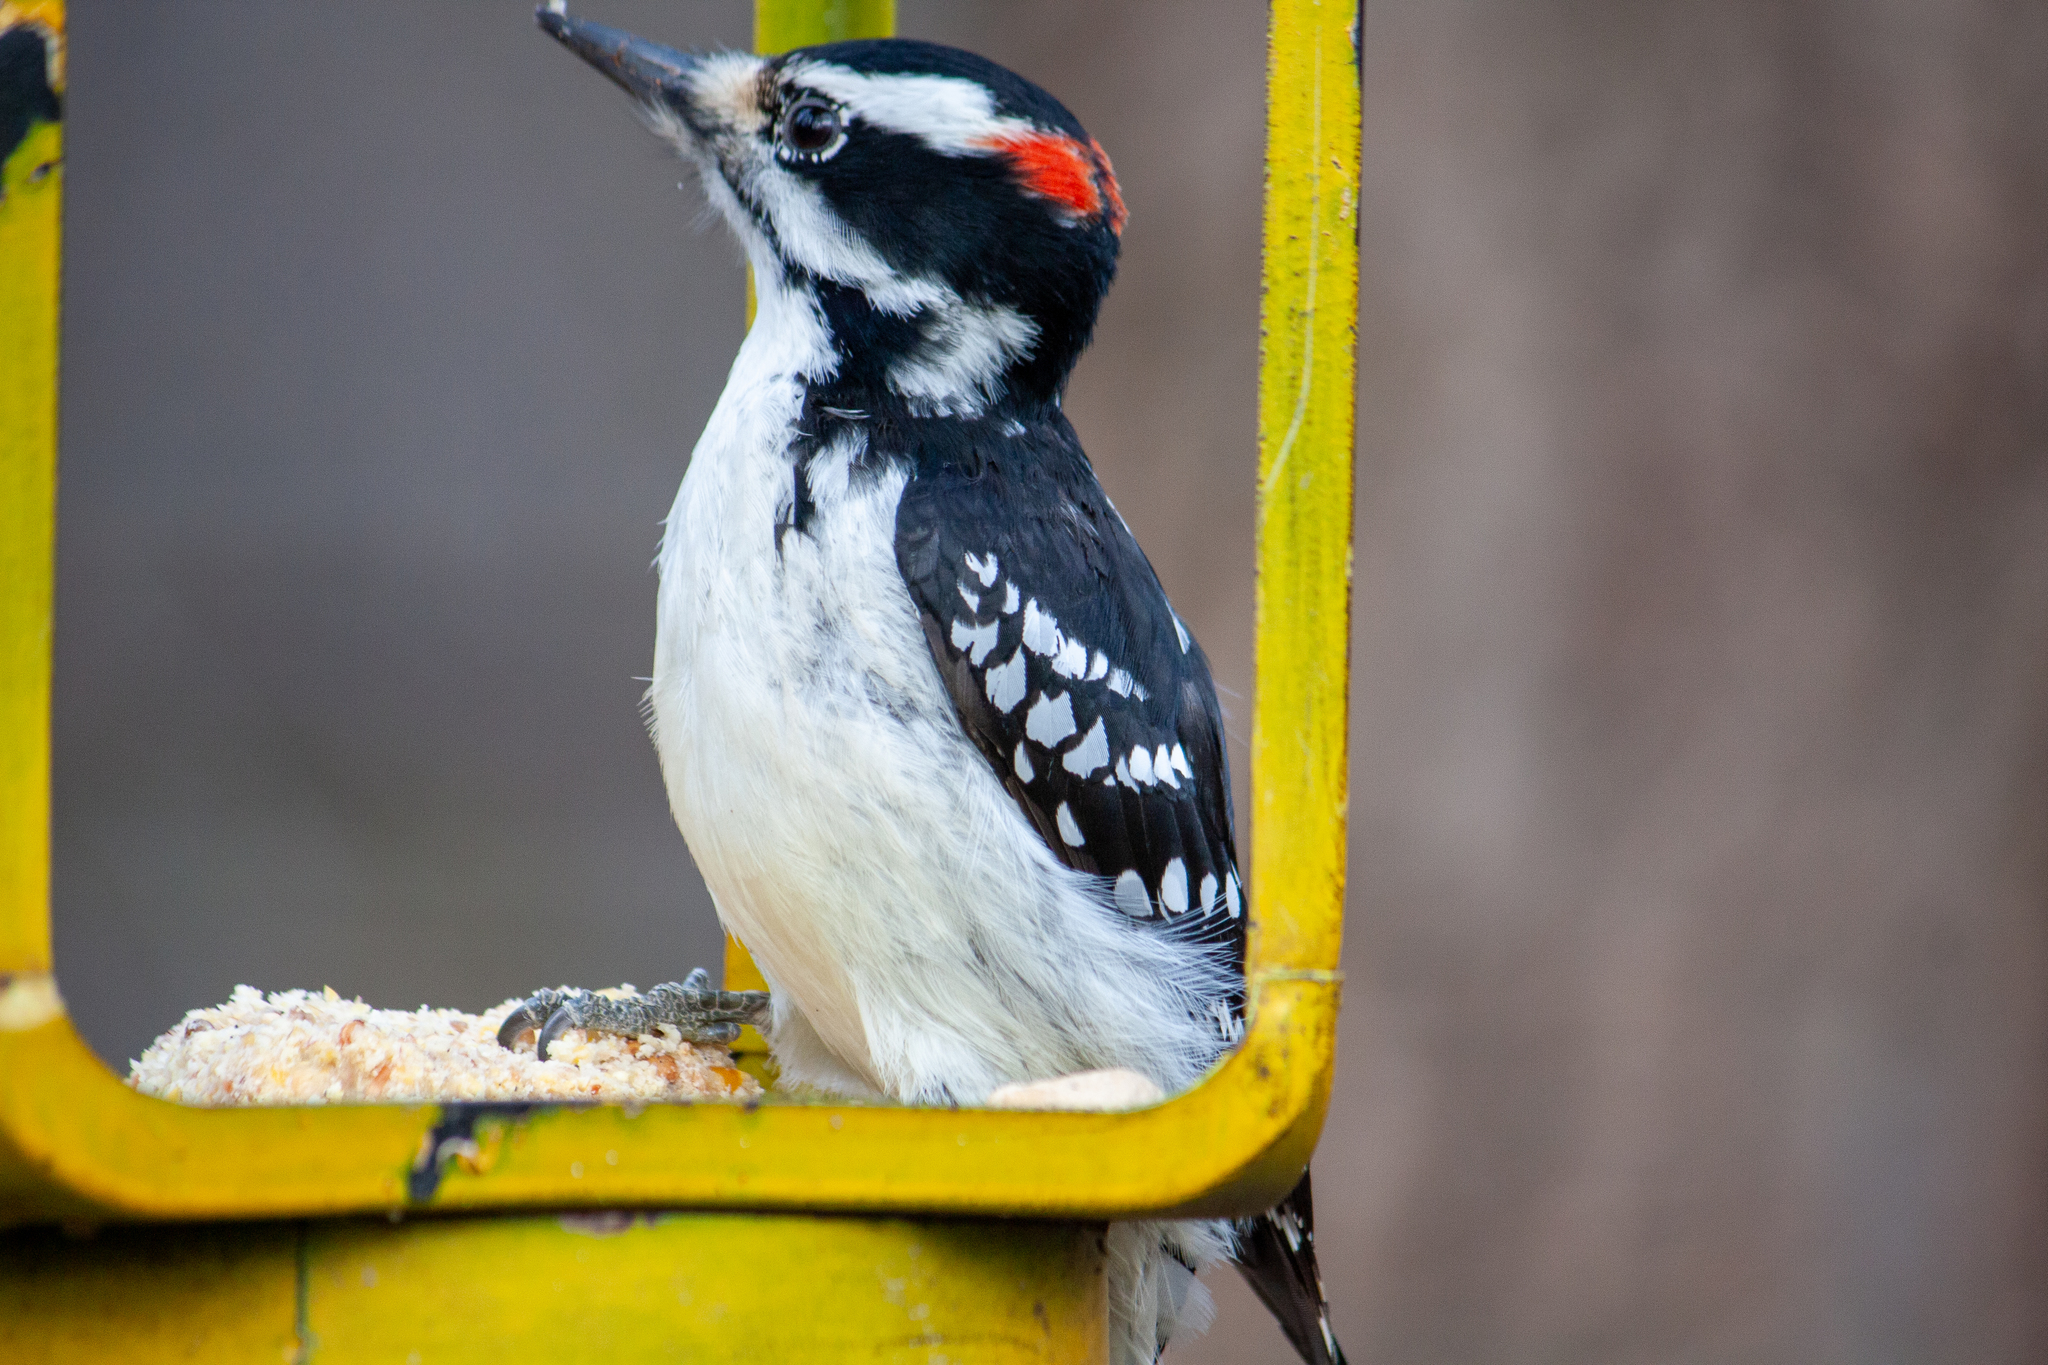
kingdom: Animalia
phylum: Chordata
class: Aves
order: Piciformes
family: Picidae
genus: Leuconotopicus
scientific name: Leuconotopicus villosus
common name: Hairy woodpecker
